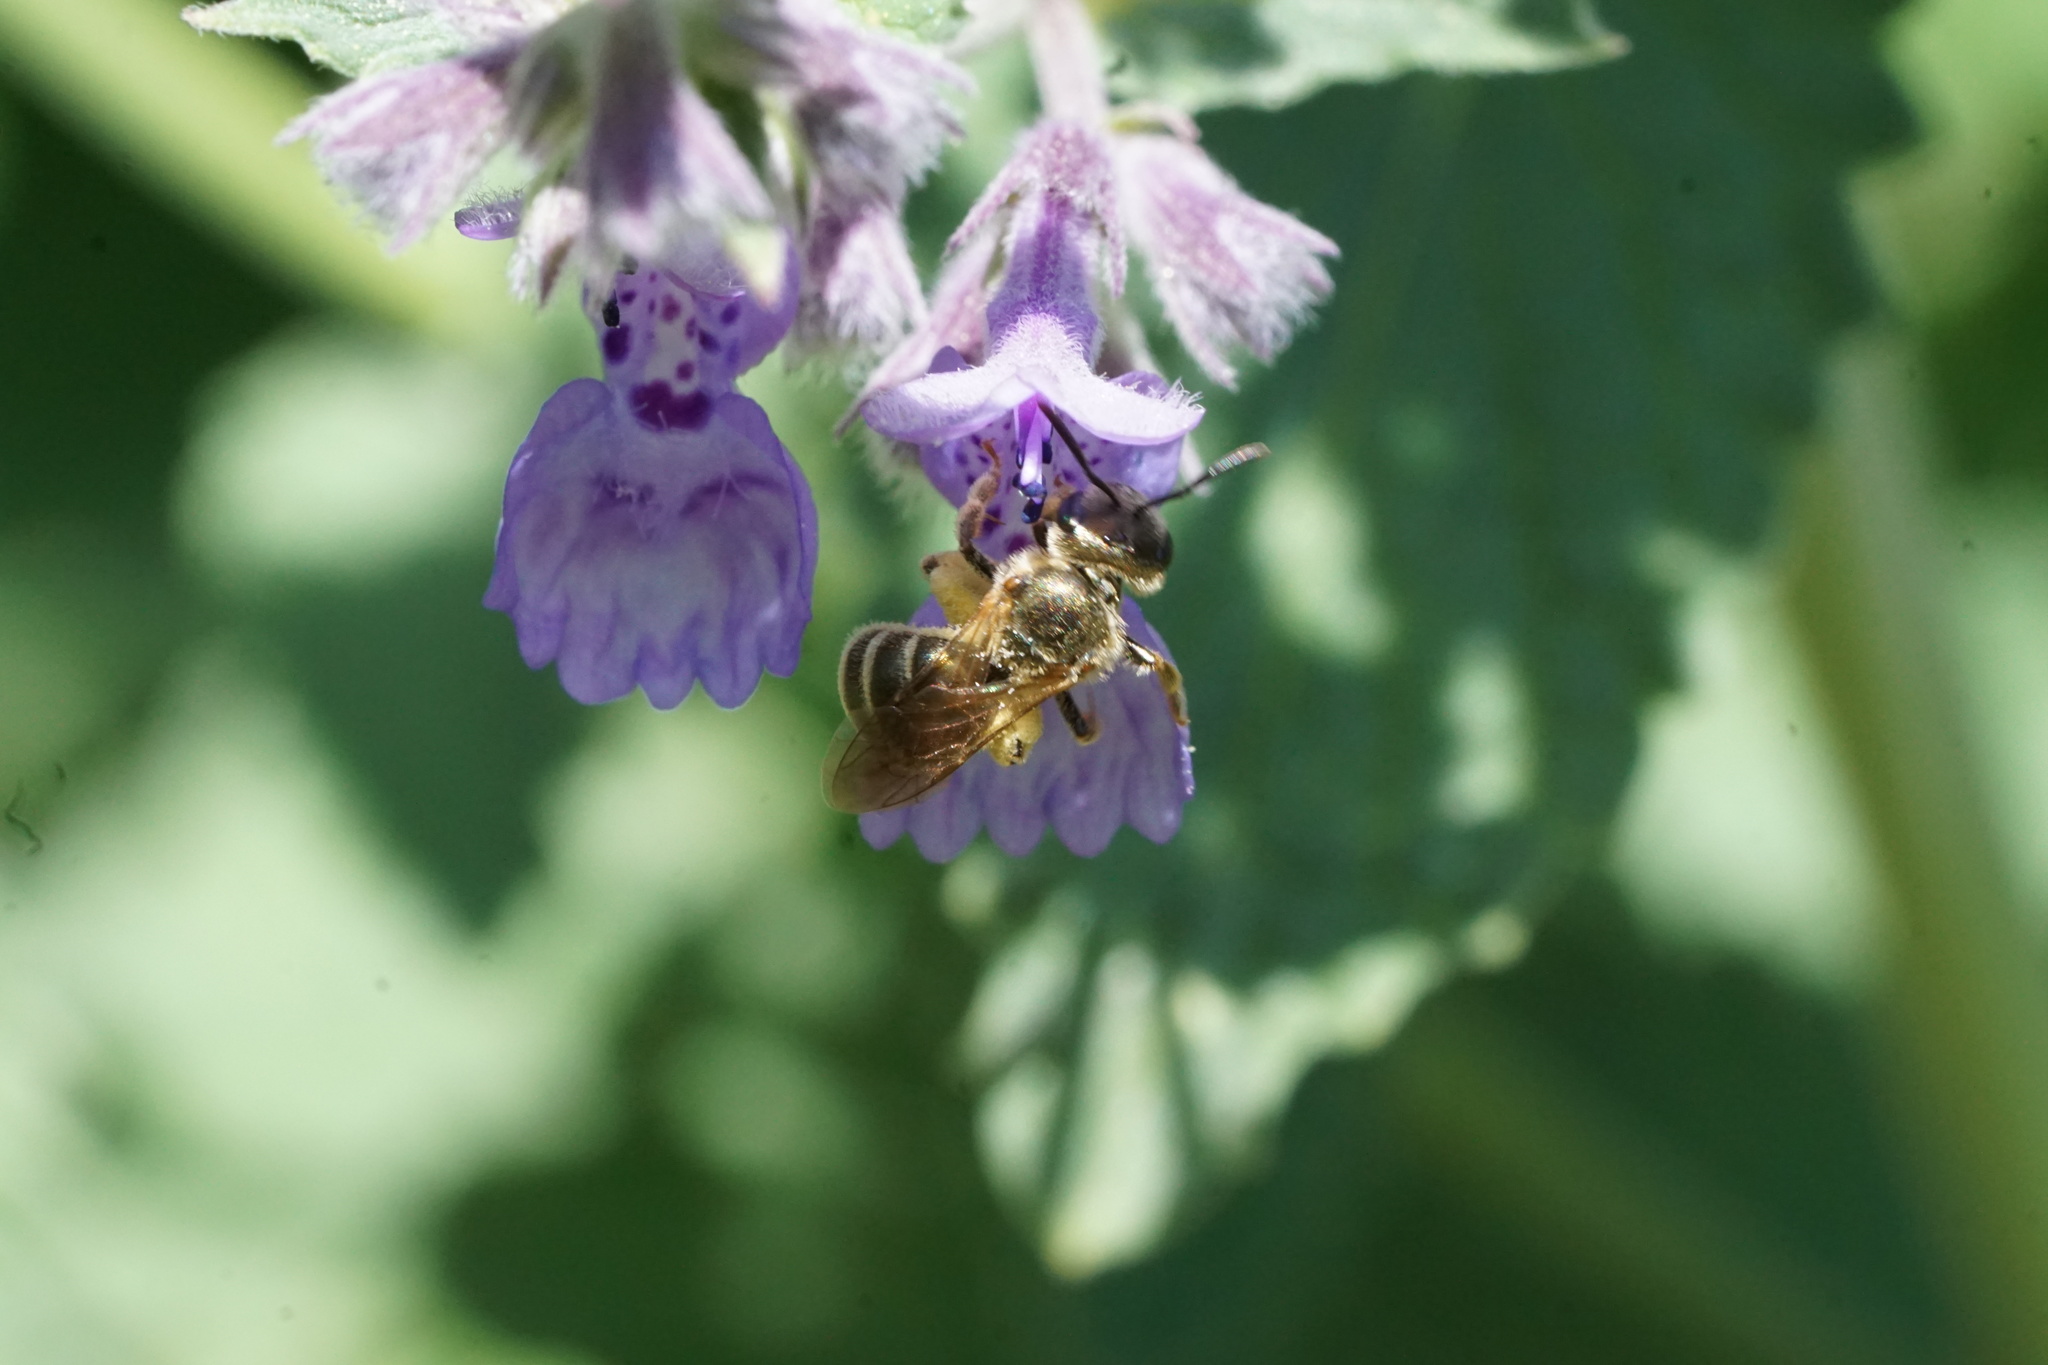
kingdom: Animalia
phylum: Arthropoda
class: Insecta
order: Hymenoptera
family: Halictidae
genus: Halictus
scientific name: Halictus confusus
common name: Southern bronze furrow bee
